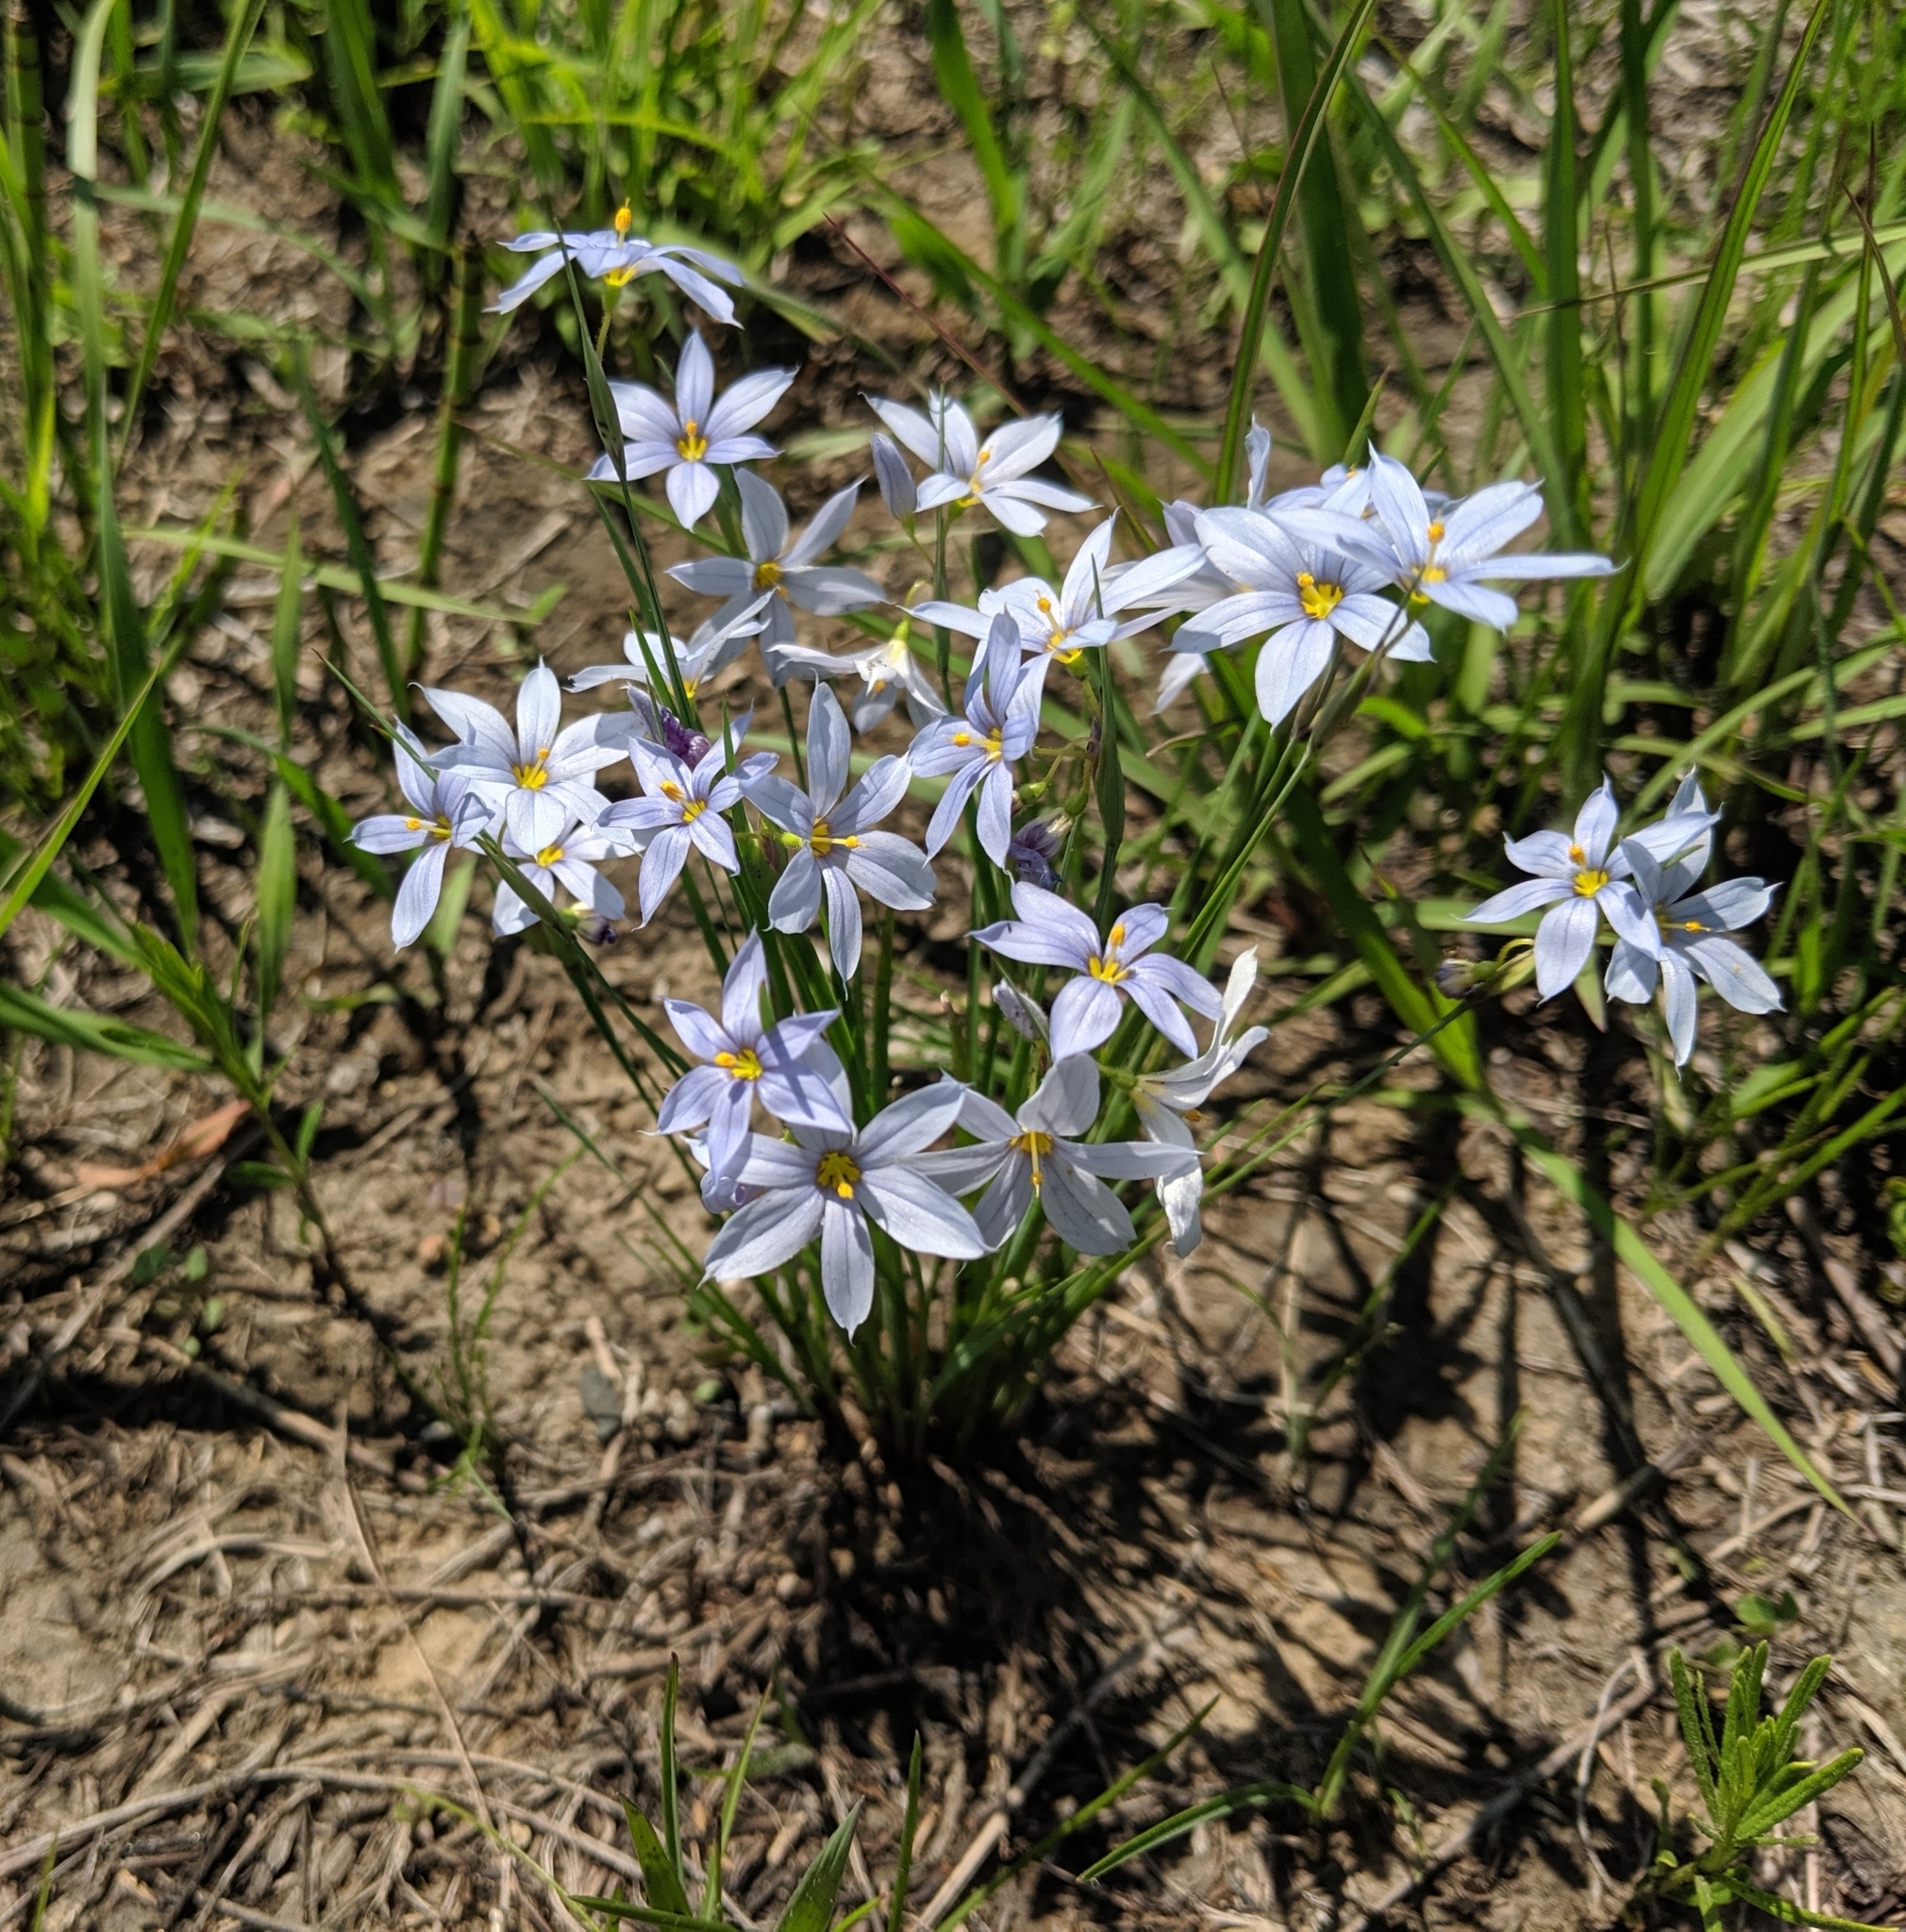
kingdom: Plantae
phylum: Tracheophyta
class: Liliopsida
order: Asparagales
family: Iridaceae
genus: Sisyrinchium
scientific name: Sisyrinchium campestre
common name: Prairie blue-eyed-grass
